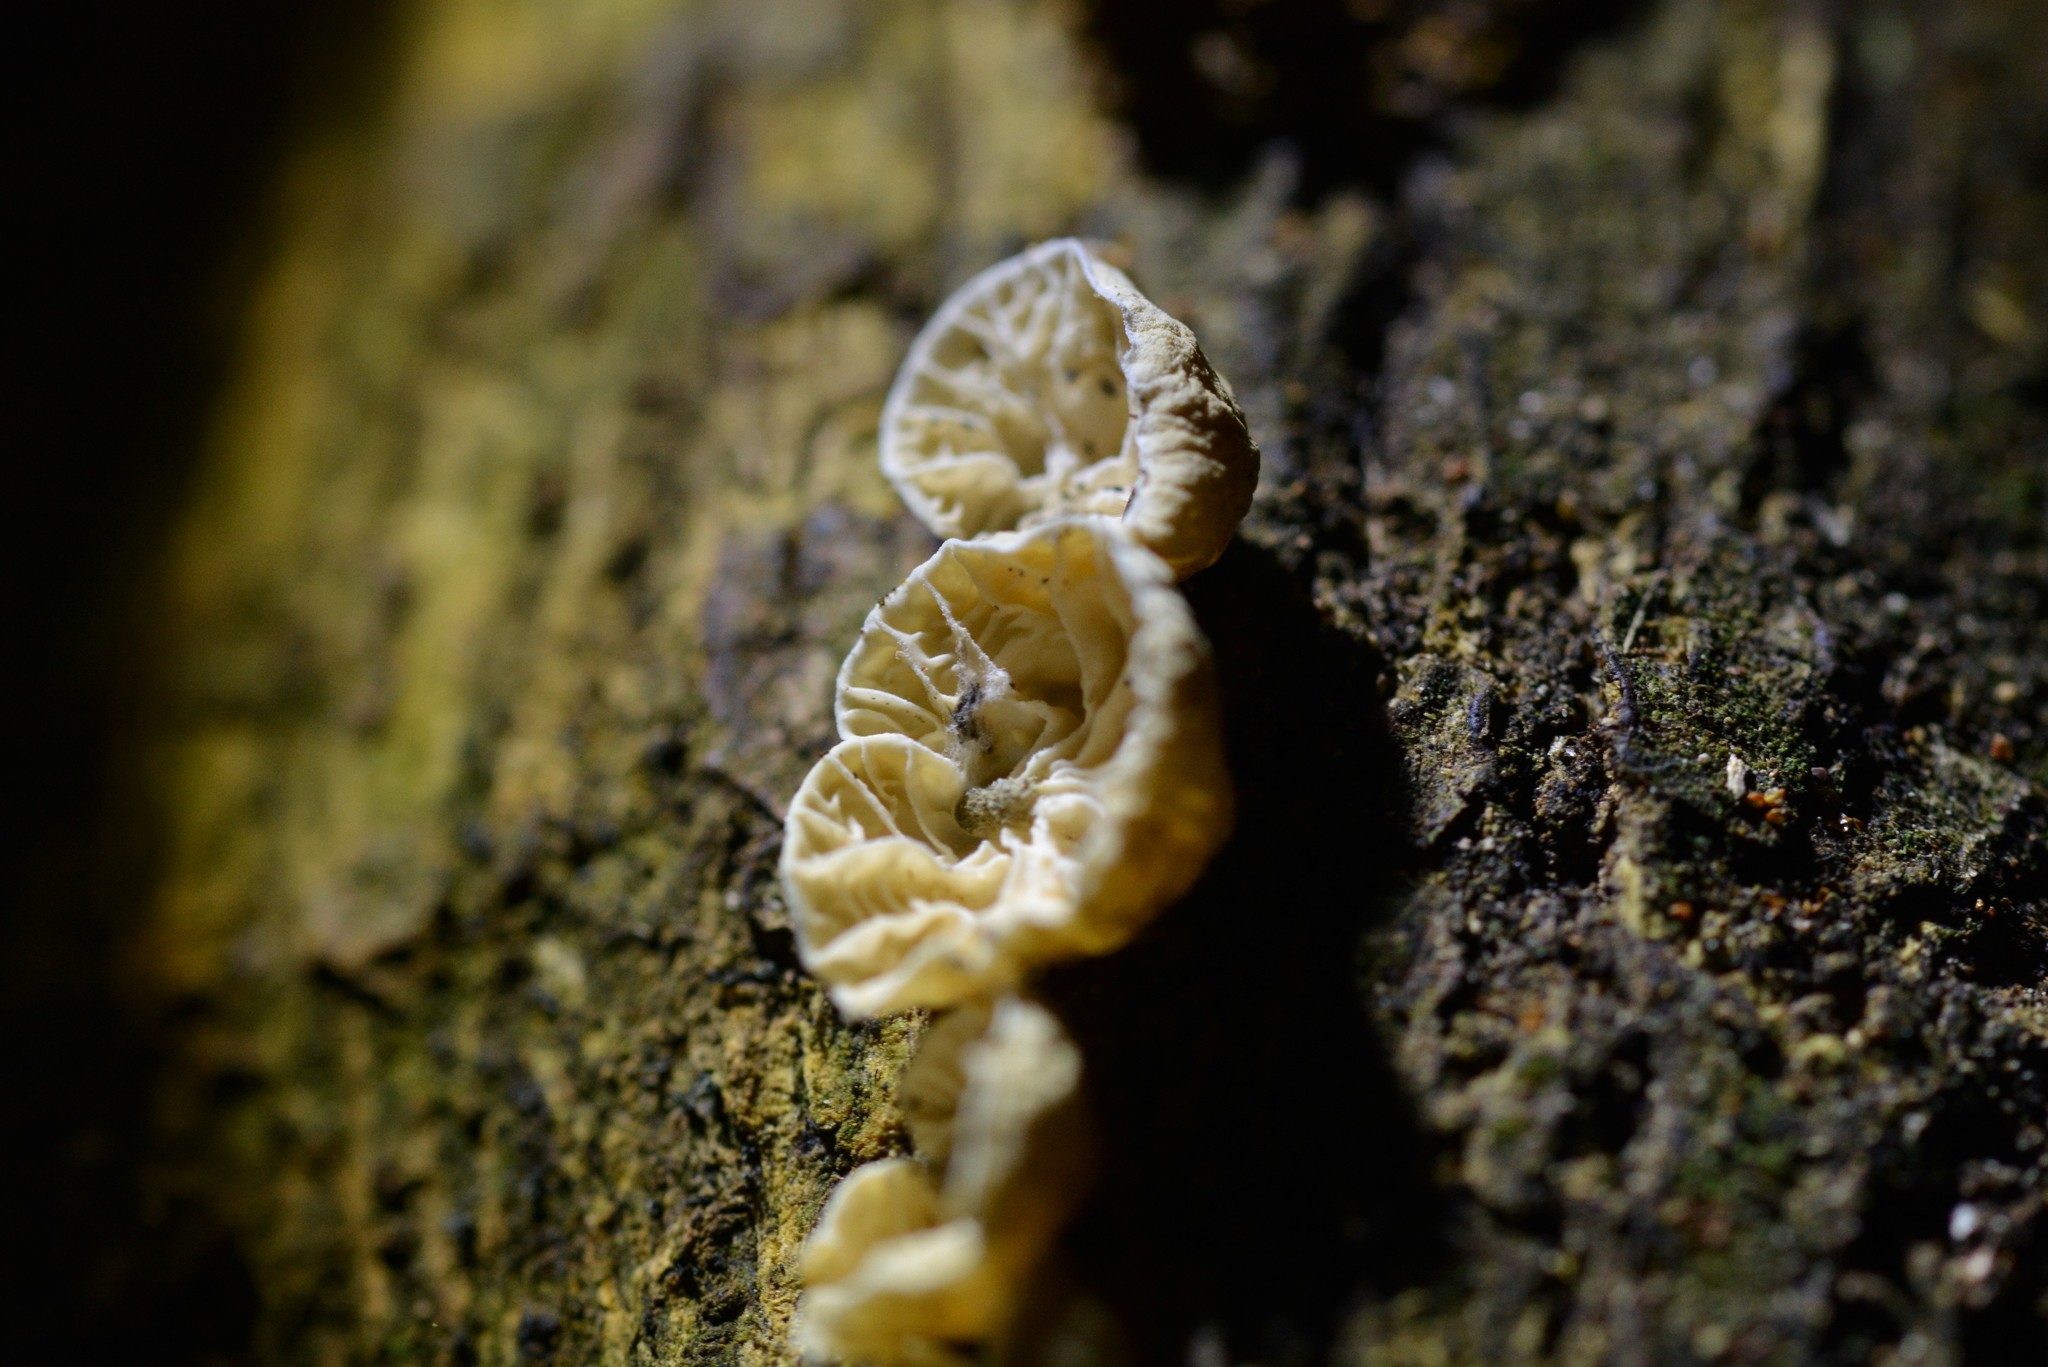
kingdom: Fungi
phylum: Basidiomycota
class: Agaricomycetes
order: Agaricales
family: Marasmiaceae
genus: Campanella
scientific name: Campanella tristis
